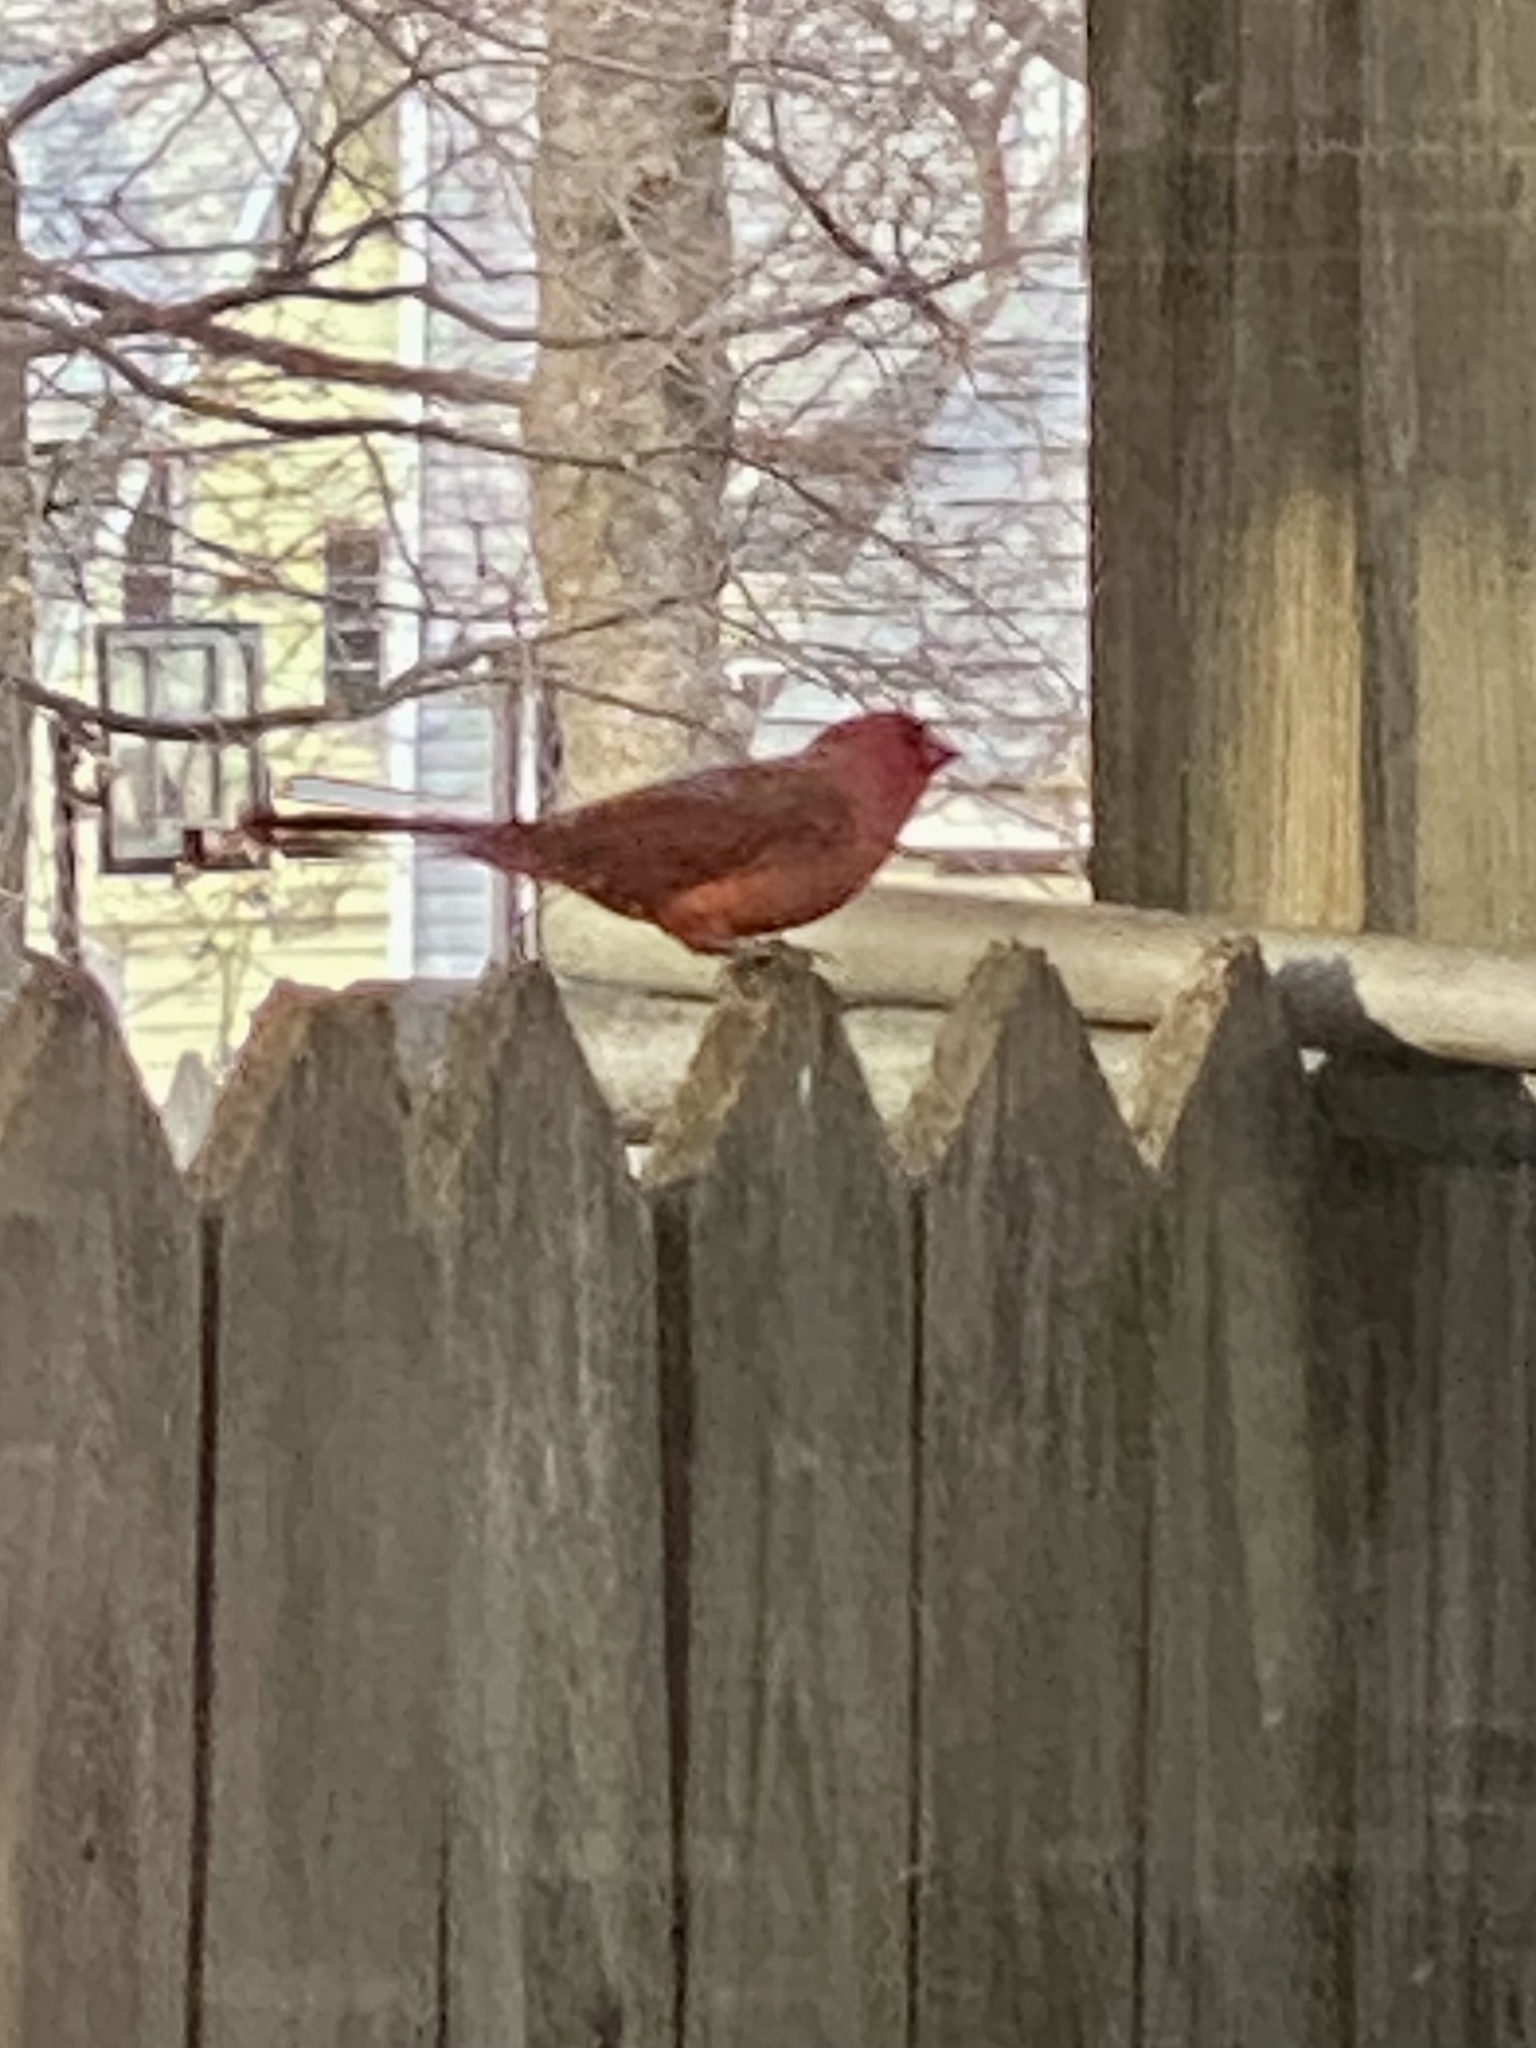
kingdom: Animalia
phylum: Chordata
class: Aves
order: Passeriformes
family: Cardinalidae
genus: Cardinalis
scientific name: Cardinalis cardinalis
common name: Northern cardinal
